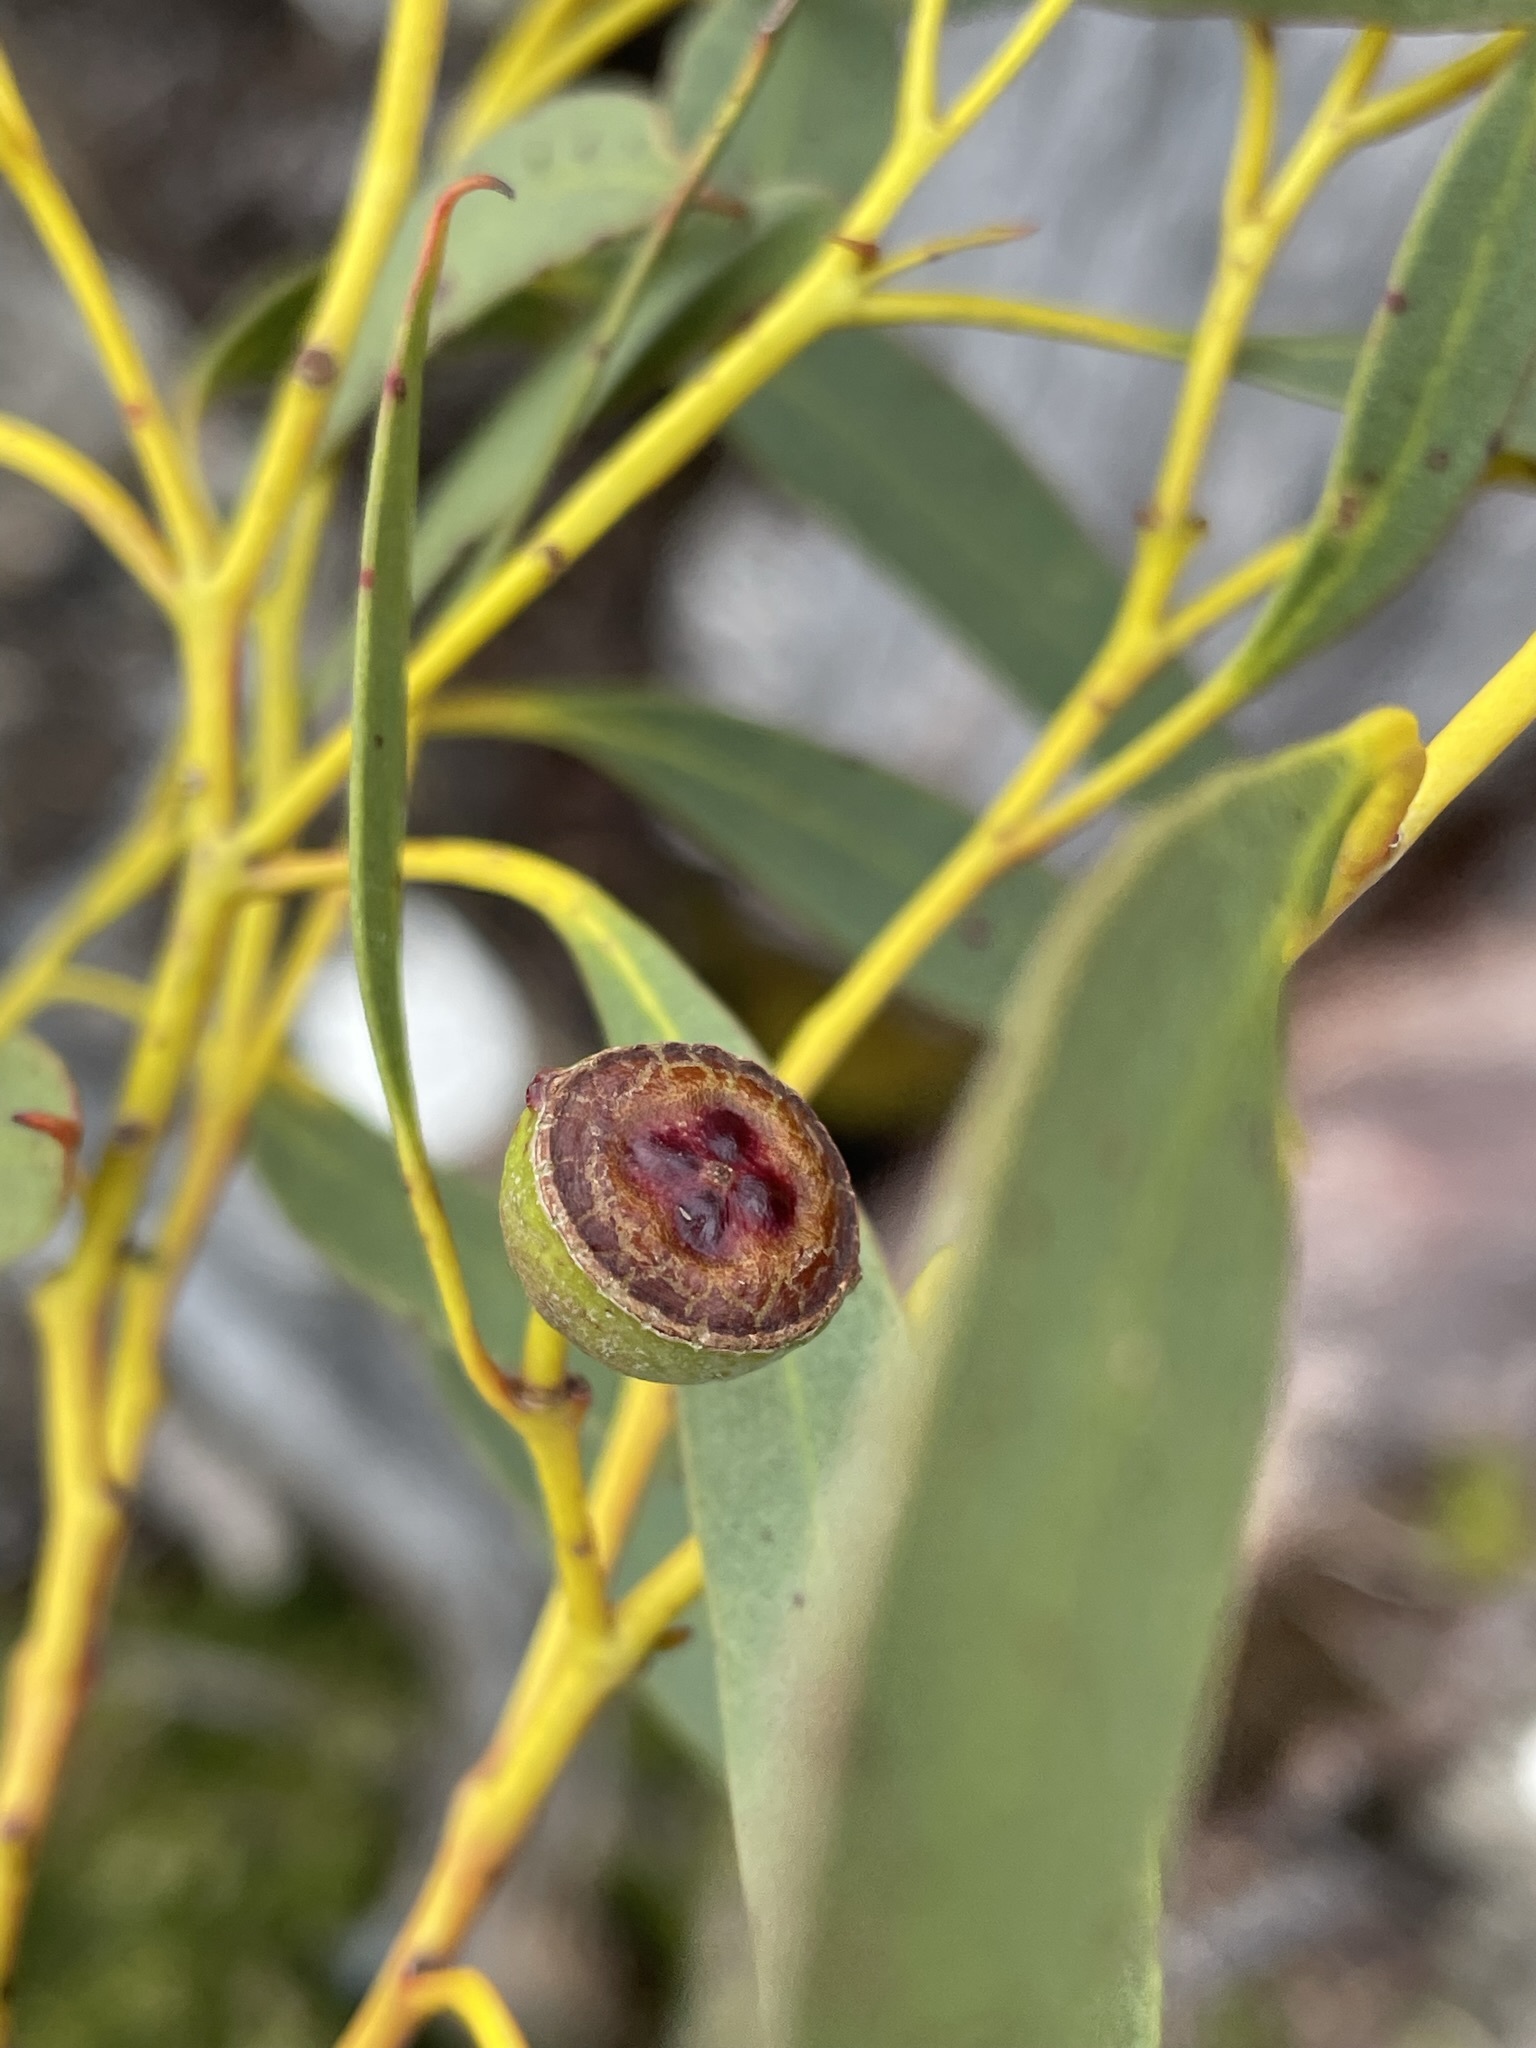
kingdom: Plantae
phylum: Tracheophyta
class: Magnoliopsida
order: Myrtales
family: Myrtaceae
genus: Eucalyptus
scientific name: Eucalyptus coccifera
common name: Tasmanian snow-gum
